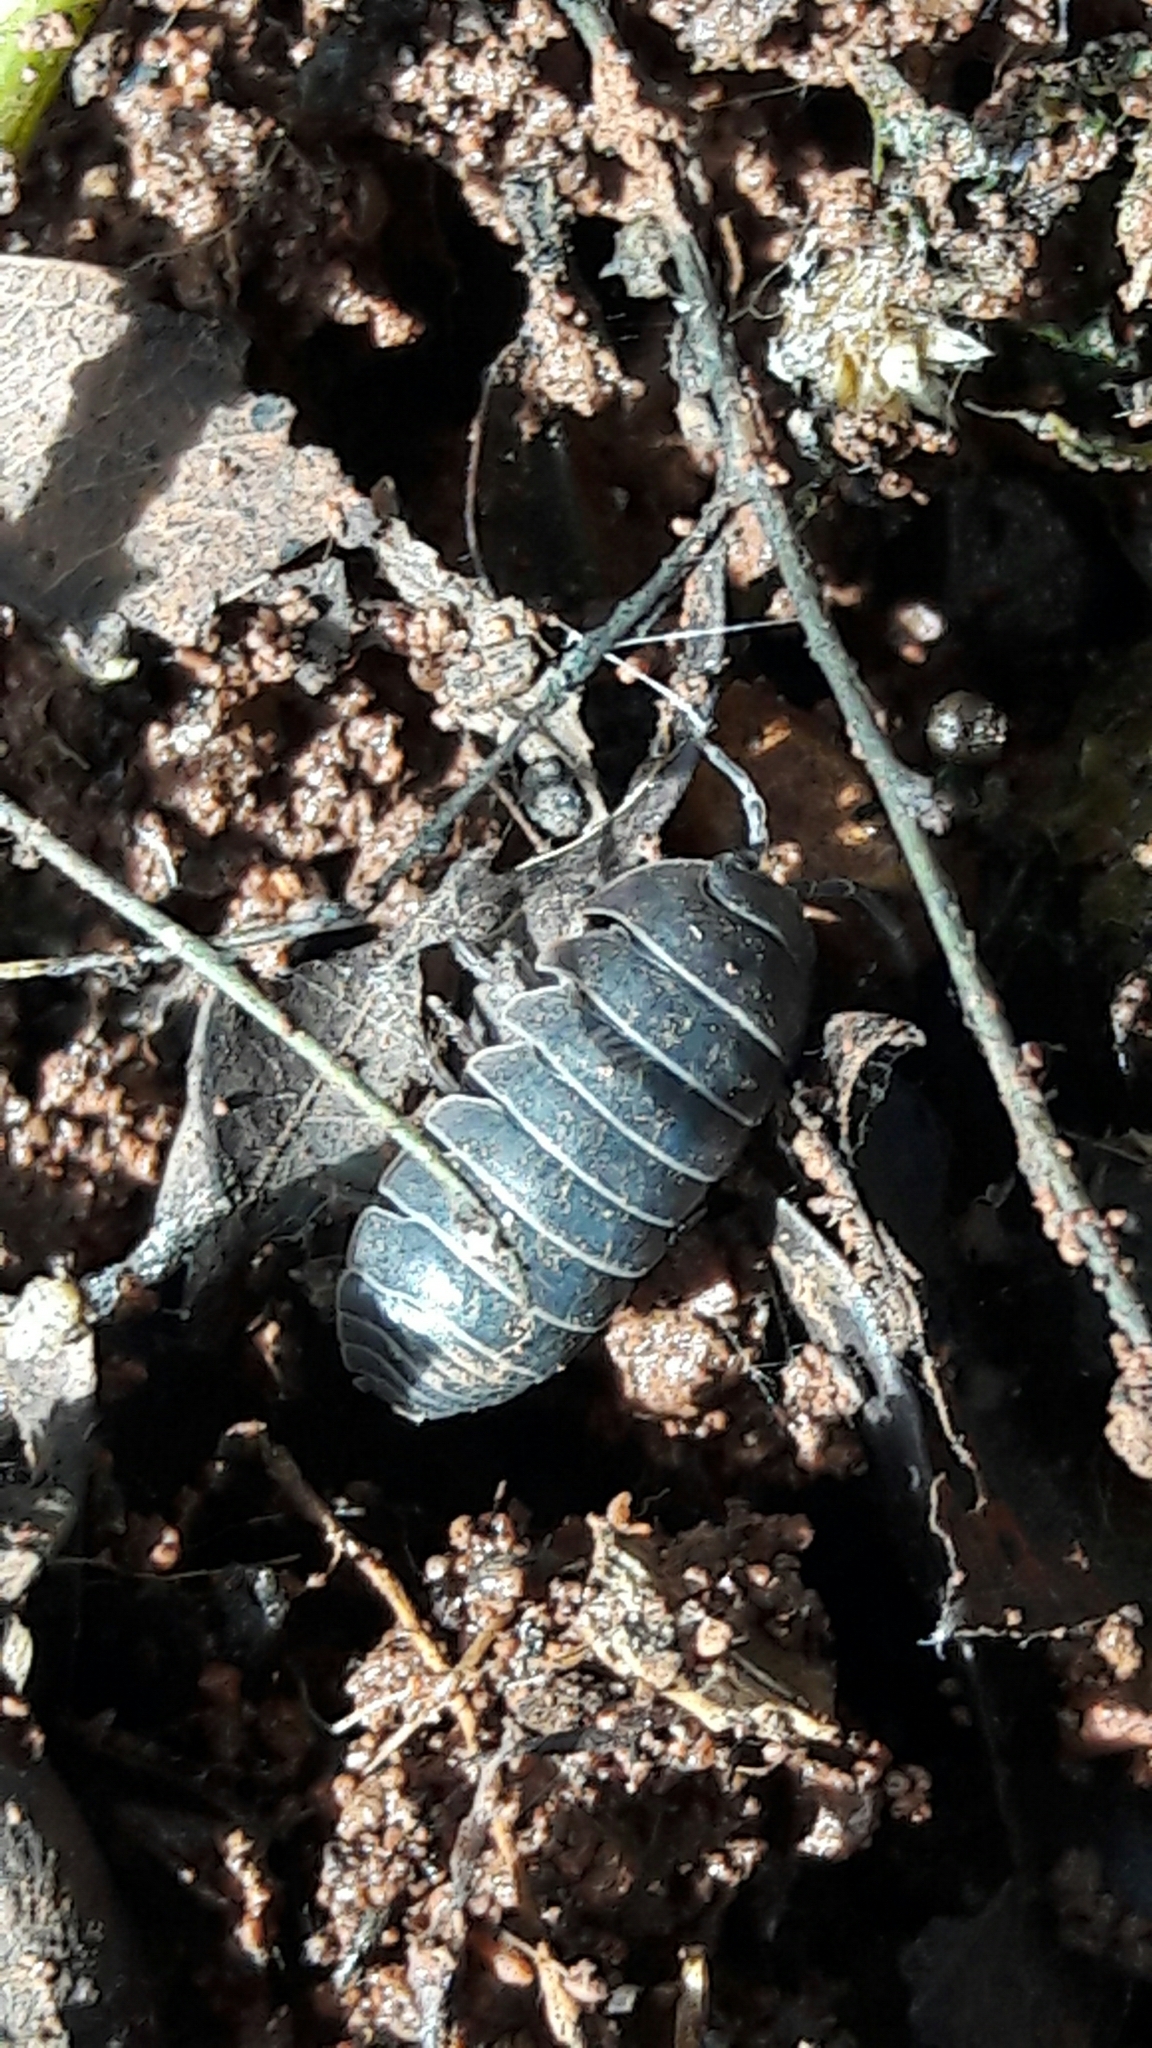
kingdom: Animalia
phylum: Arthropoda
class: Malacostraca
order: Isopoda
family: Armadillidiidae
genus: Armadillidium
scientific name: Armadillidium vulgare
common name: Common pill woodlouse
